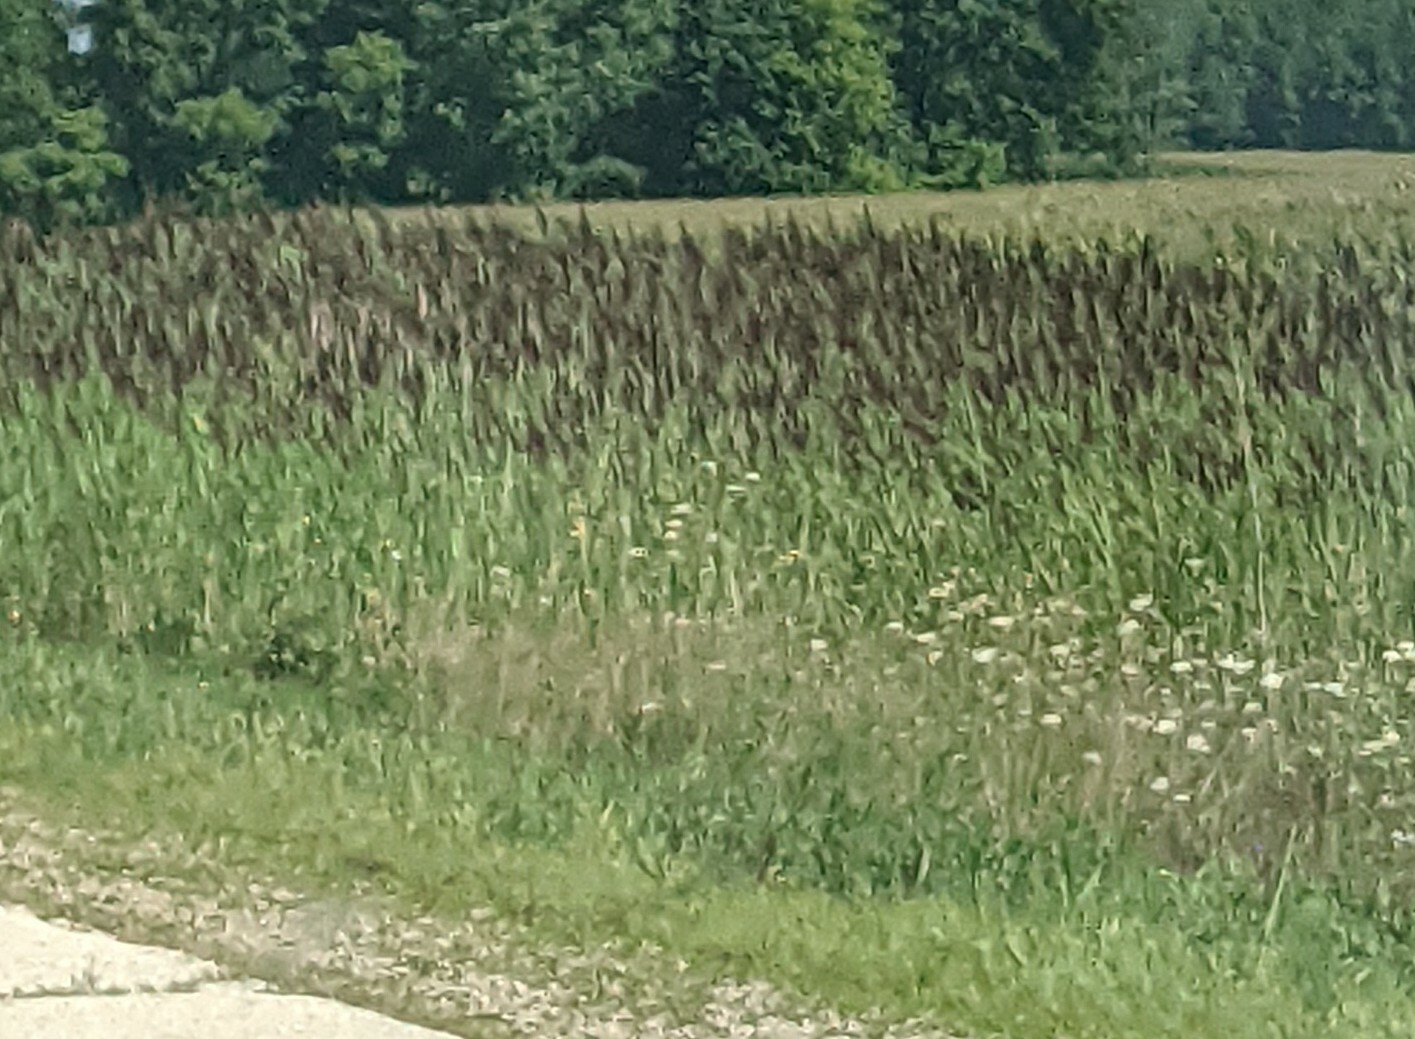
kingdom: Plantae
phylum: Tracheophyta
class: Liliopsida
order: Poales
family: Poaceae
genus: Phragmites
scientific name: Phragmites australis
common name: Common reed
